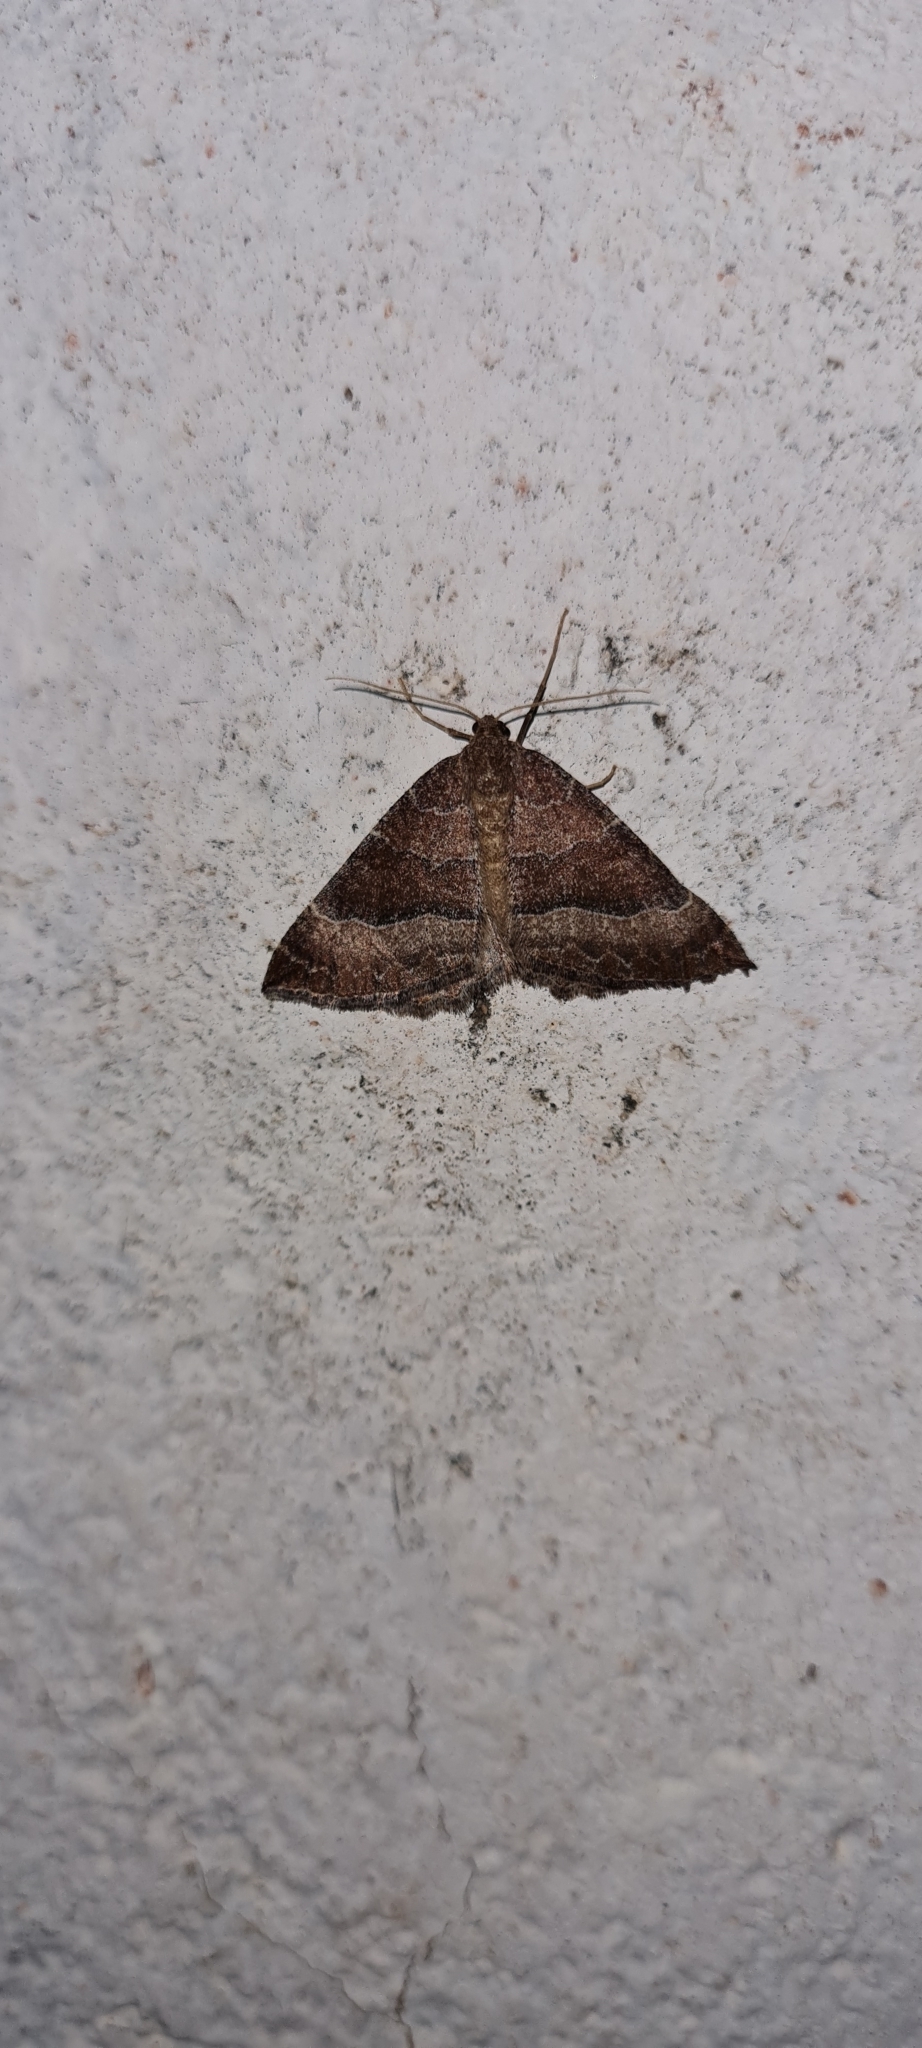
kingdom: Animalia
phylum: Arthropoda
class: Insecta
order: Lepidoptera
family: Geometridae
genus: Larentia
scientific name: Larentia clavaria
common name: Mallow
